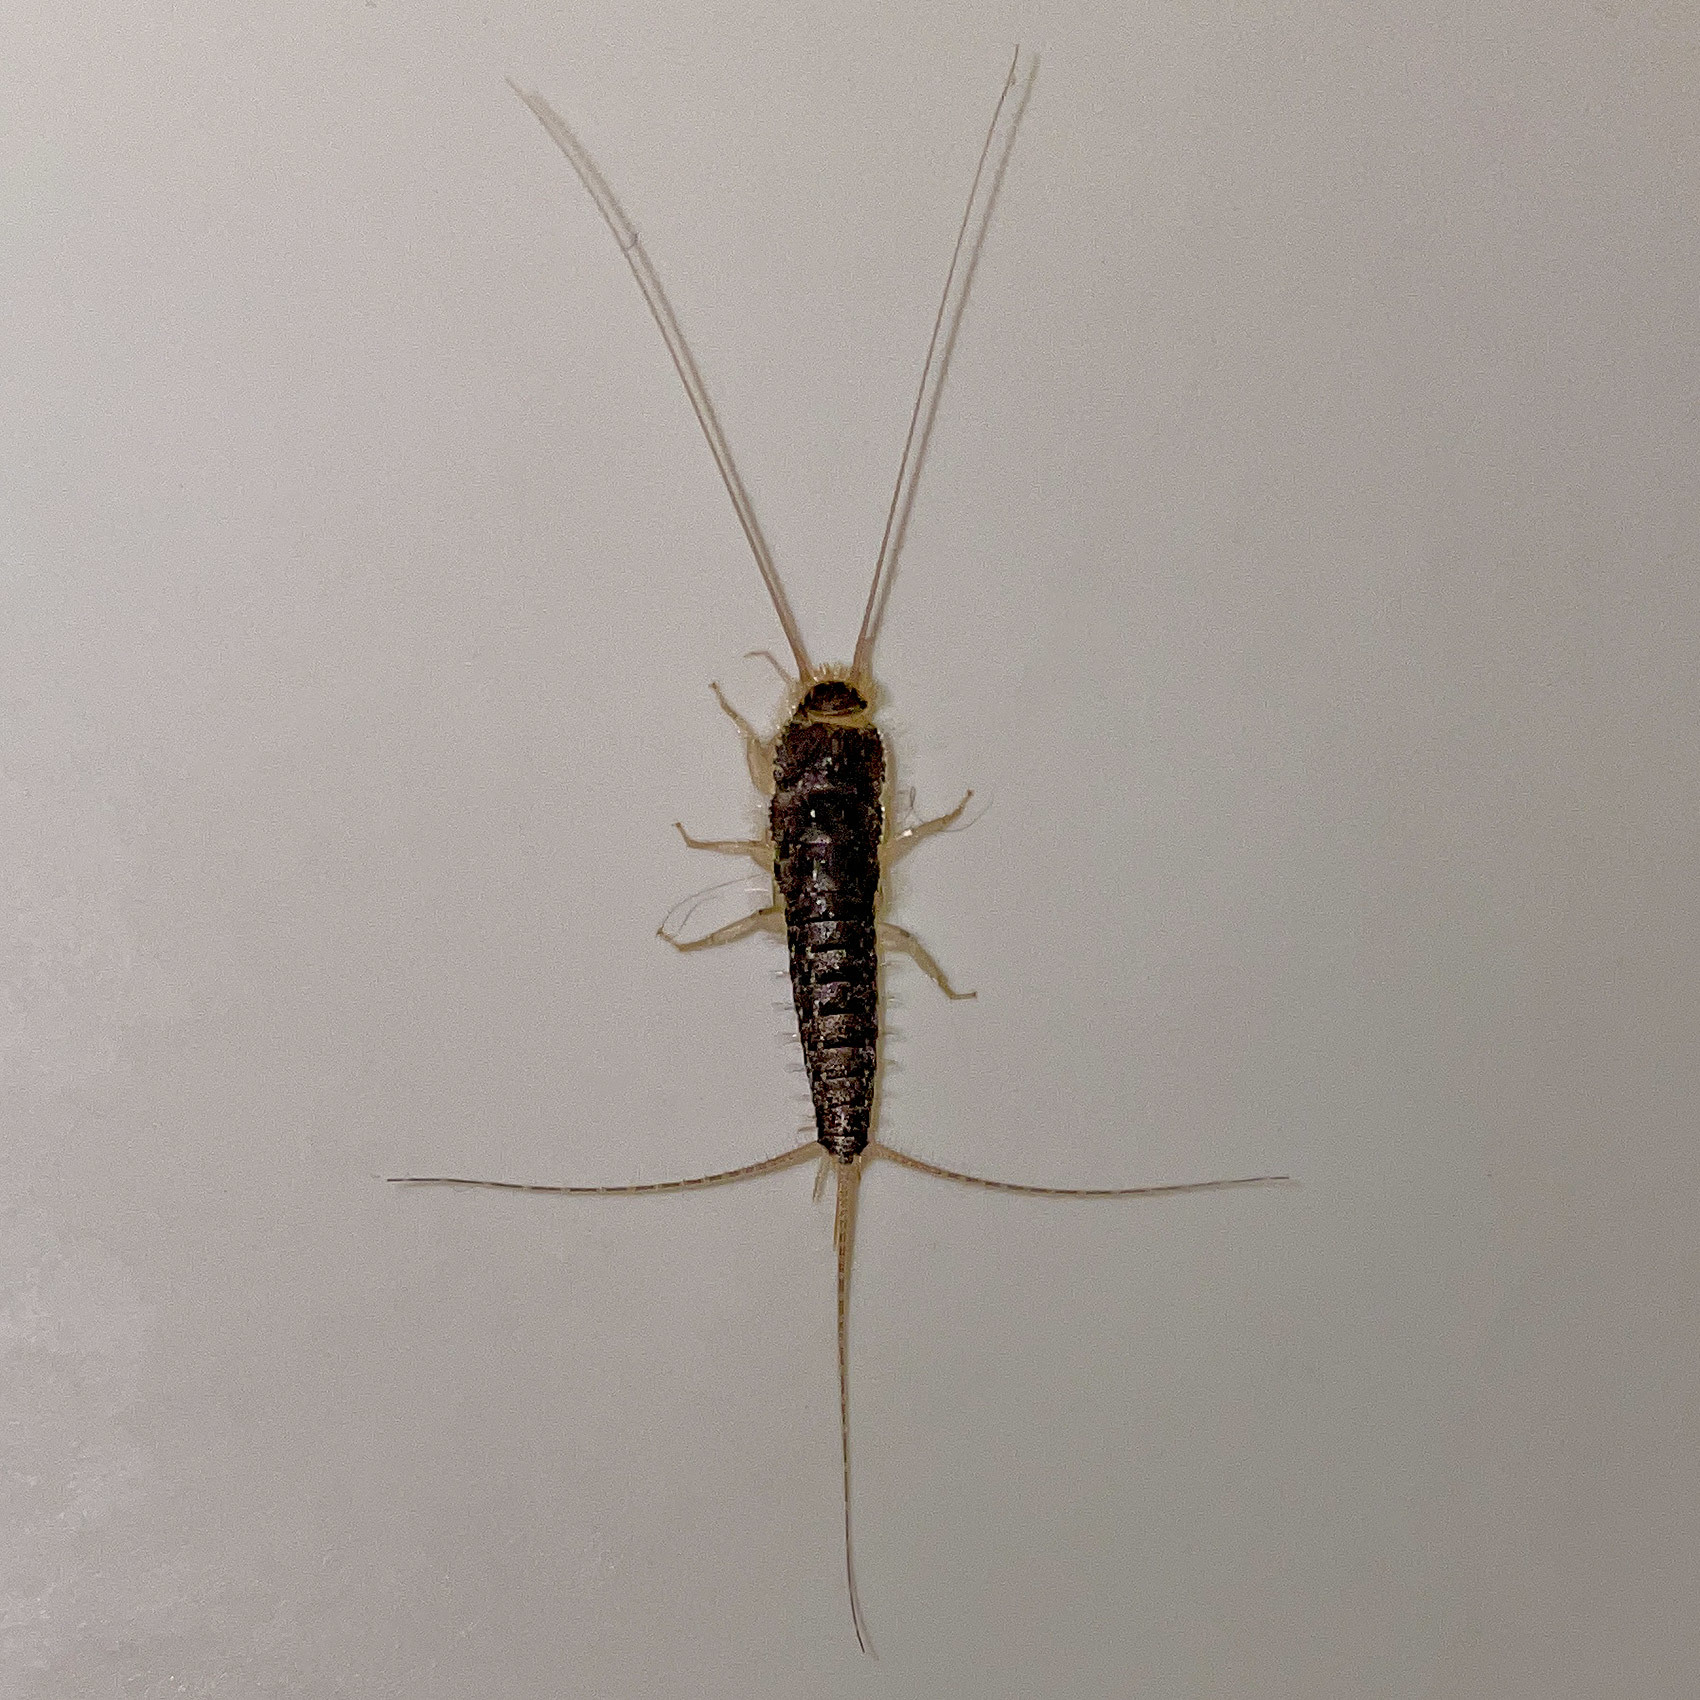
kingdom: Animalia
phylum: Arthropoda
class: Insecta
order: Zygentoma
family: Lepismatidae
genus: Ctenolepisma
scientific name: Ctenolepisma longicaudatum
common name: Silverfish
